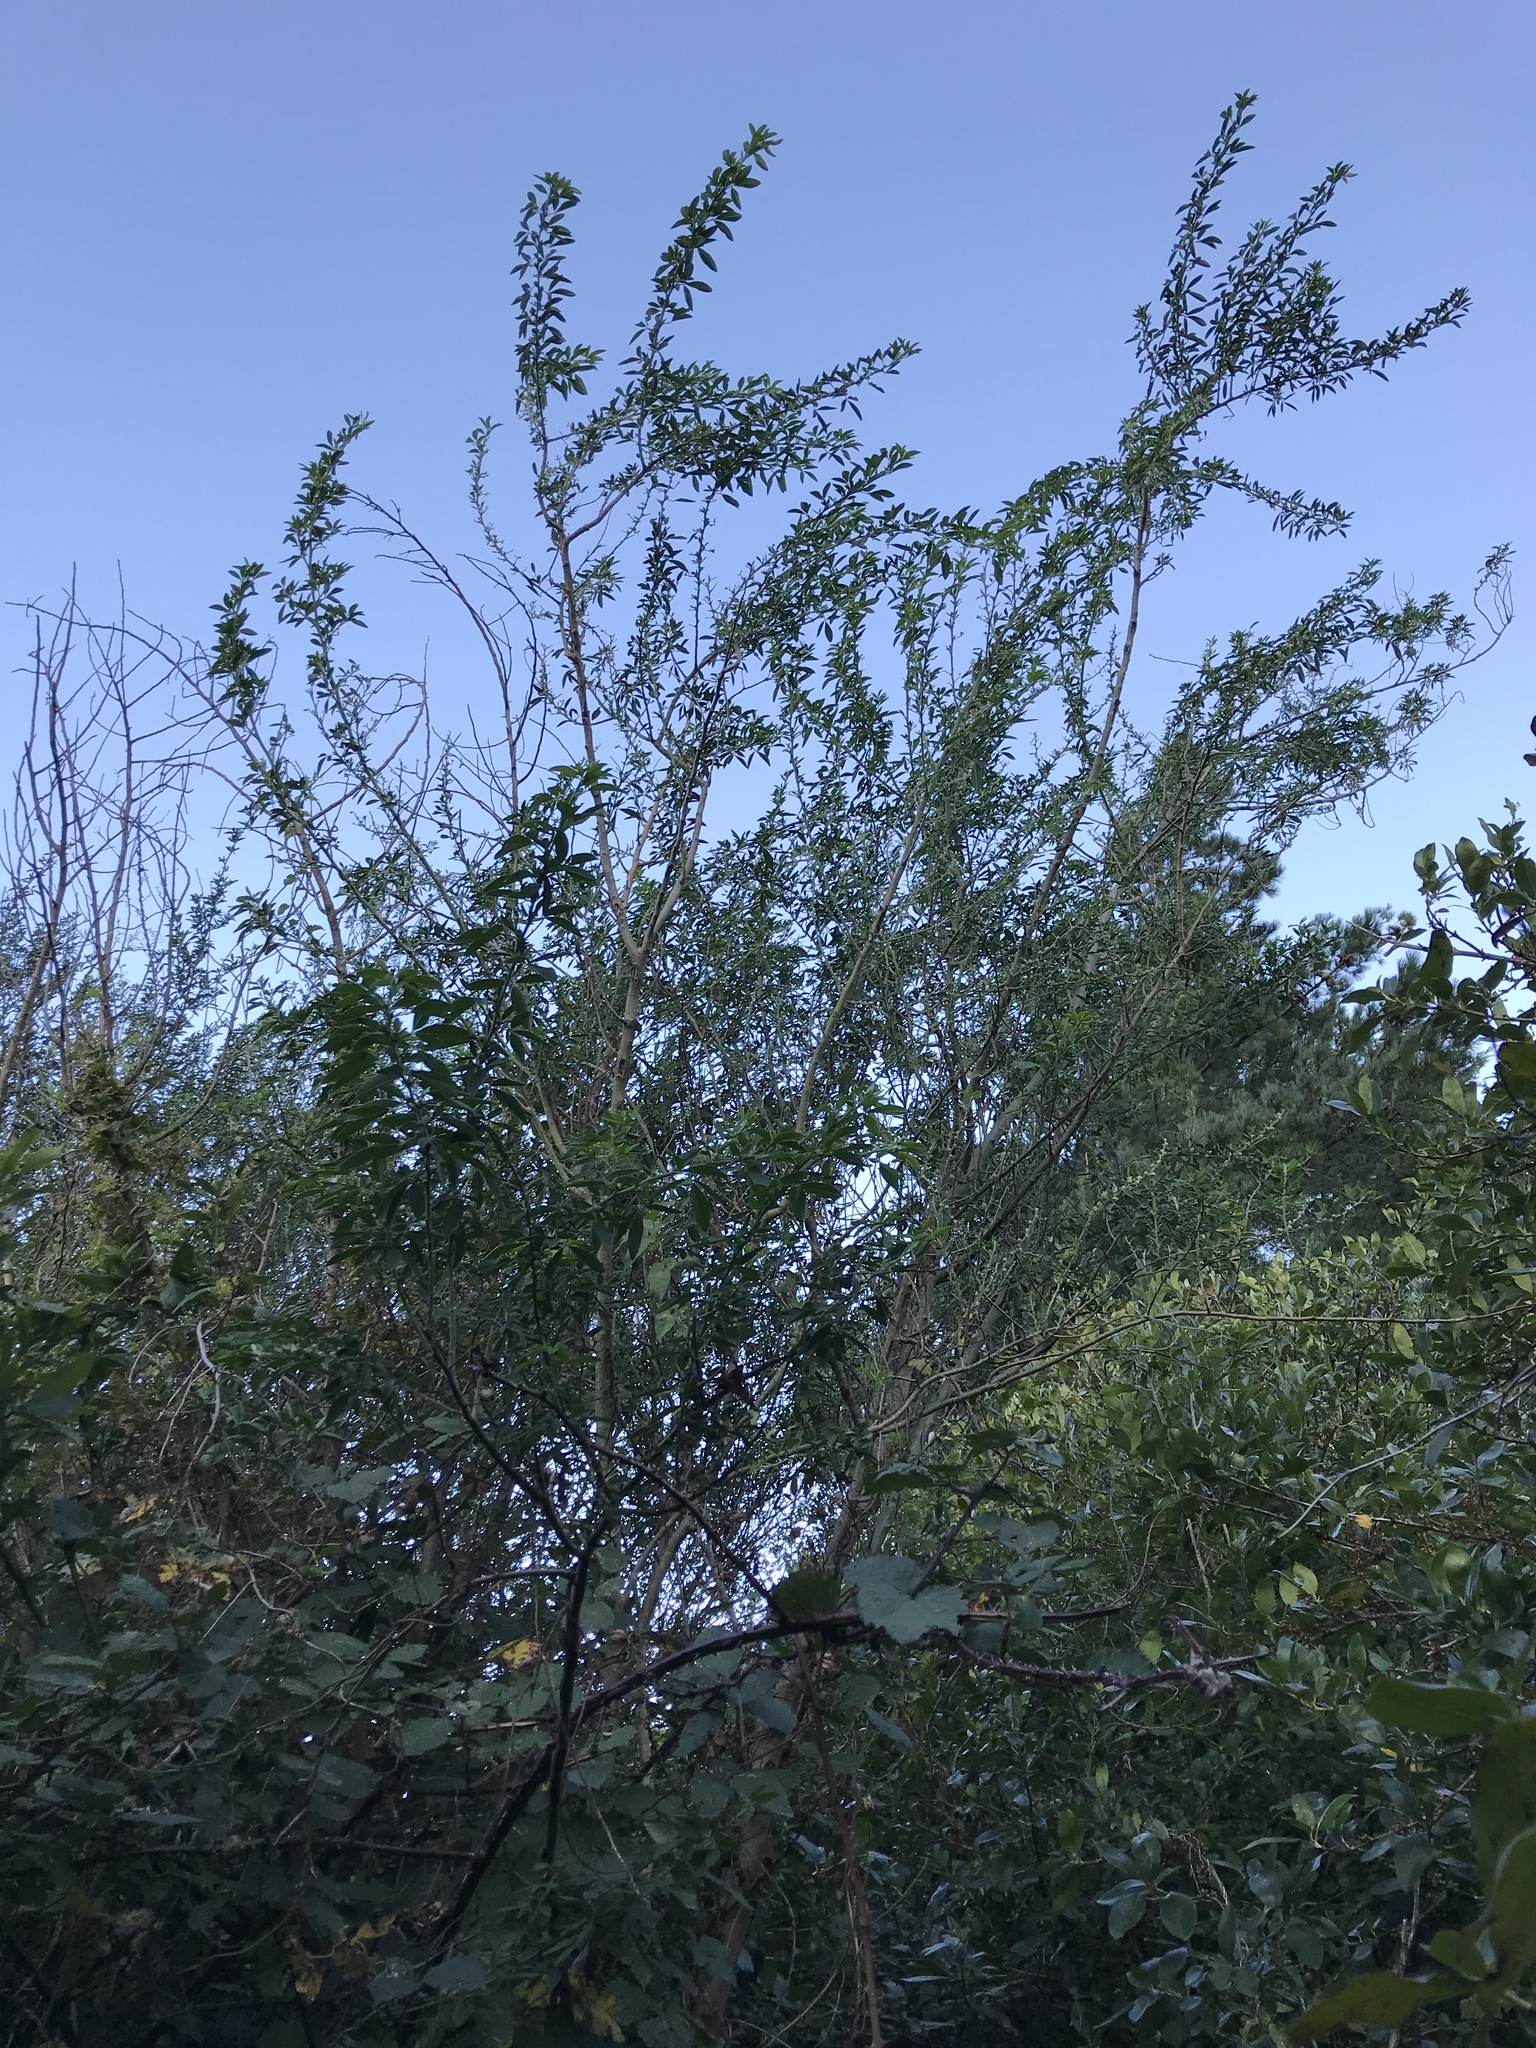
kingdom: Plantae
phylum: Tracheophyta
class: Magnoliopsida
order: Fabales
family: Fabaceae
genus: Chamaecytisus
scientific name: Chamaecytisus prolifer
